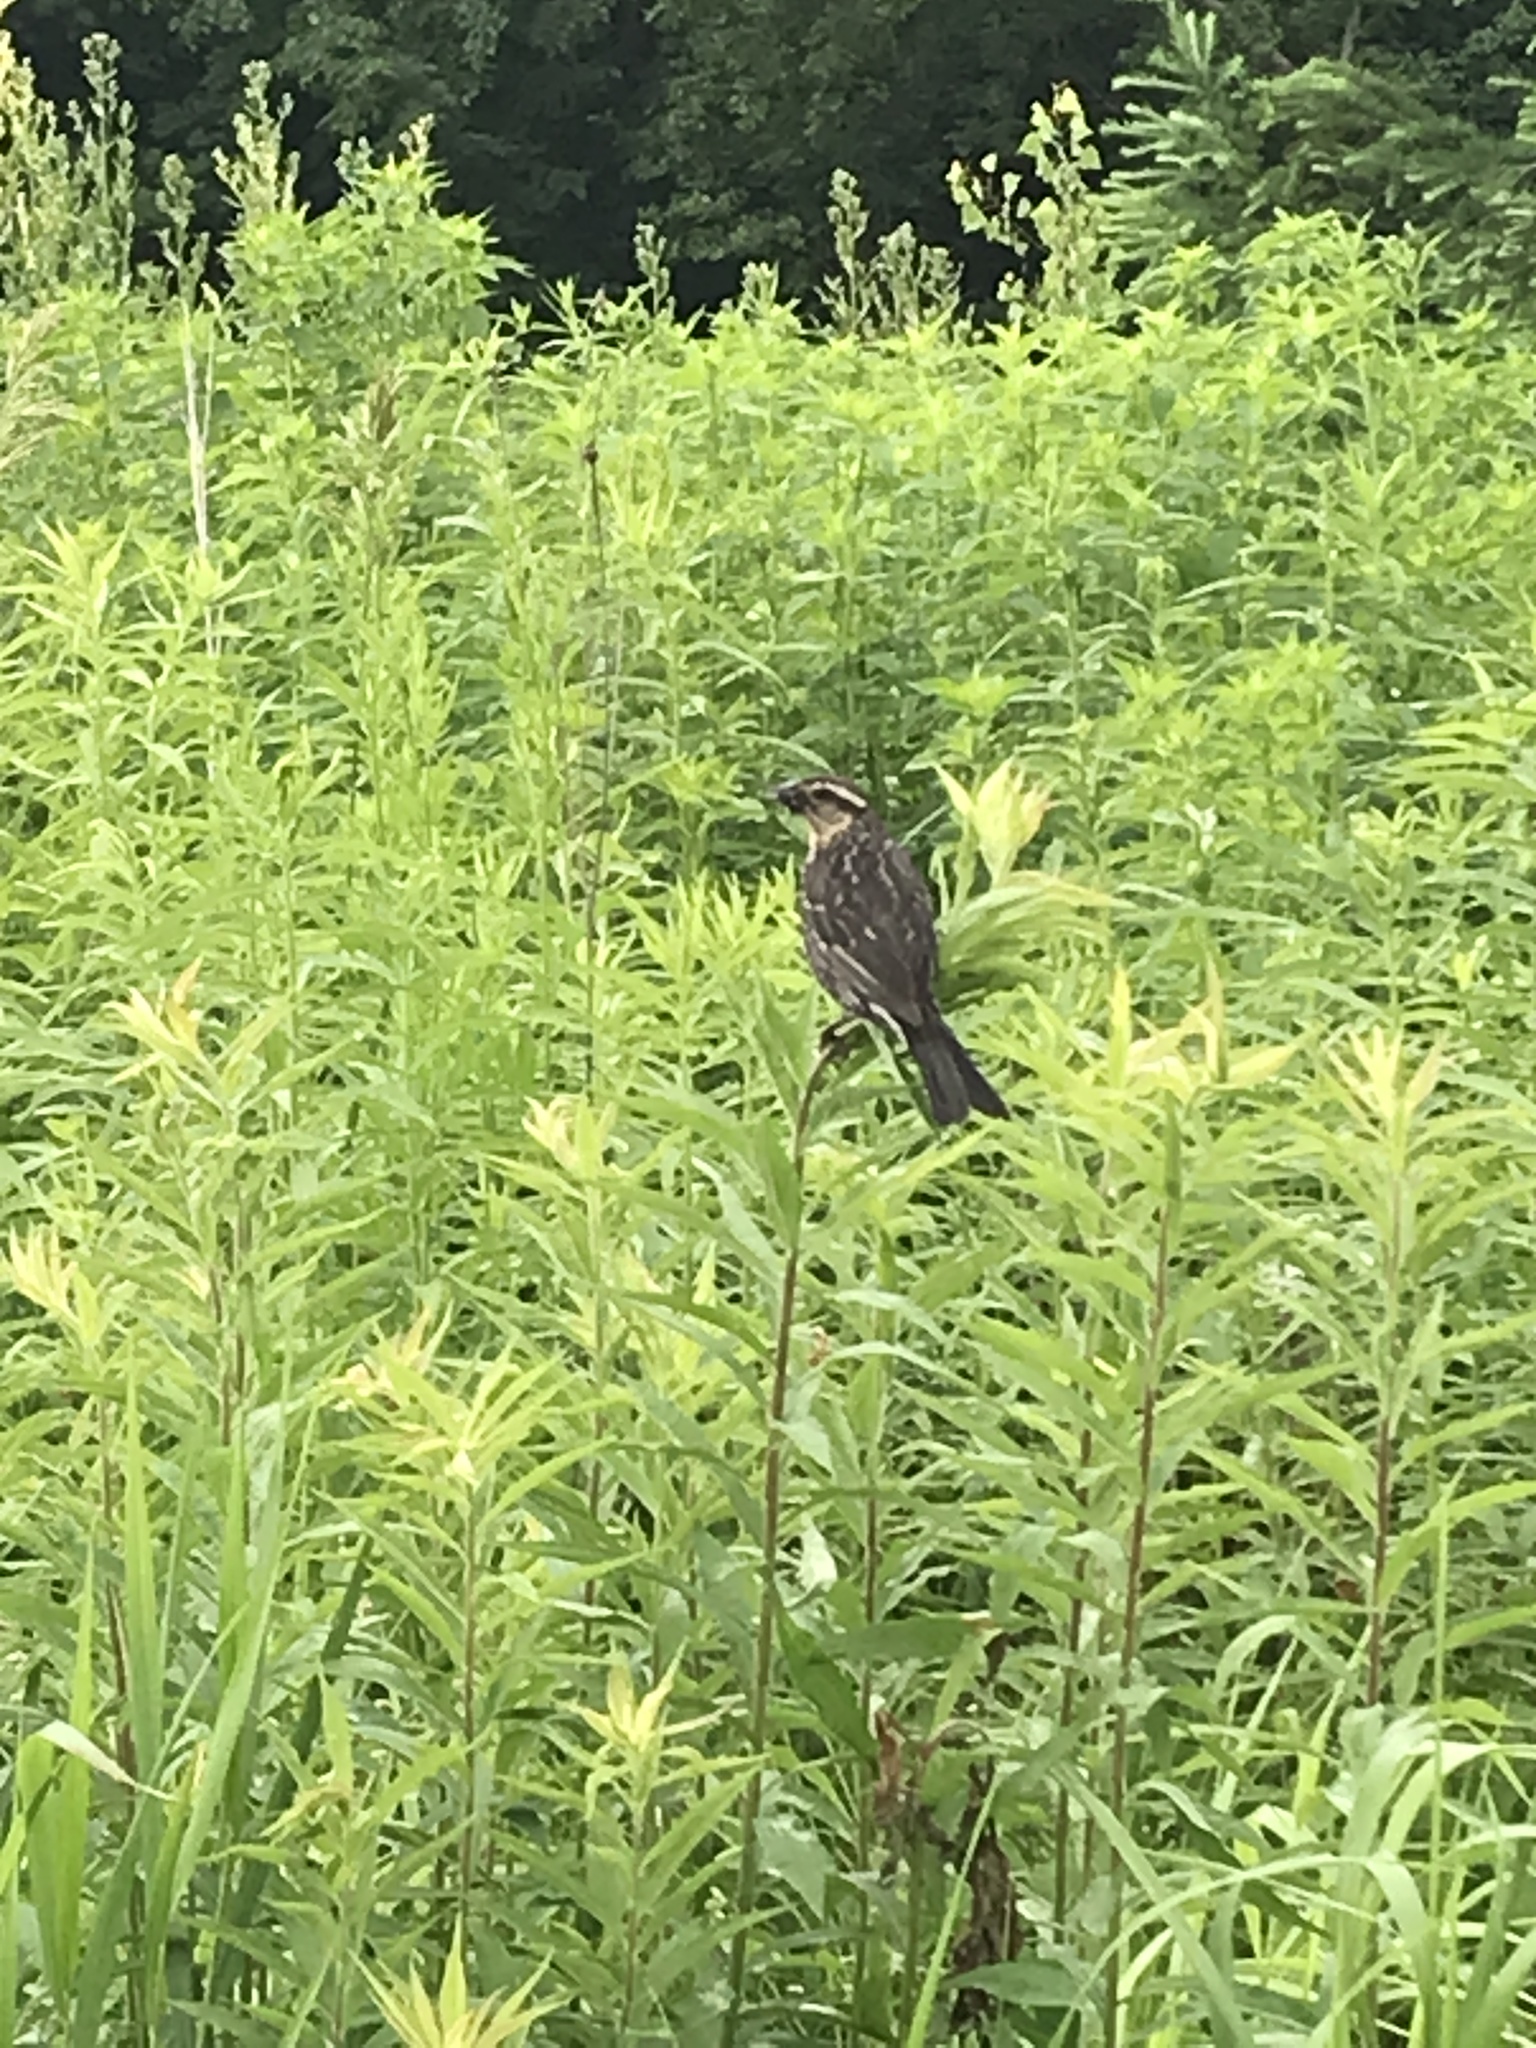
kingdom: Animalia
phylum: Chordata
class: Aves
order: Passeriformes
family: Icteridae
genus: Agelaius
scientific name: Agelaius phoeniceus
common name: Red-winged blackbird
